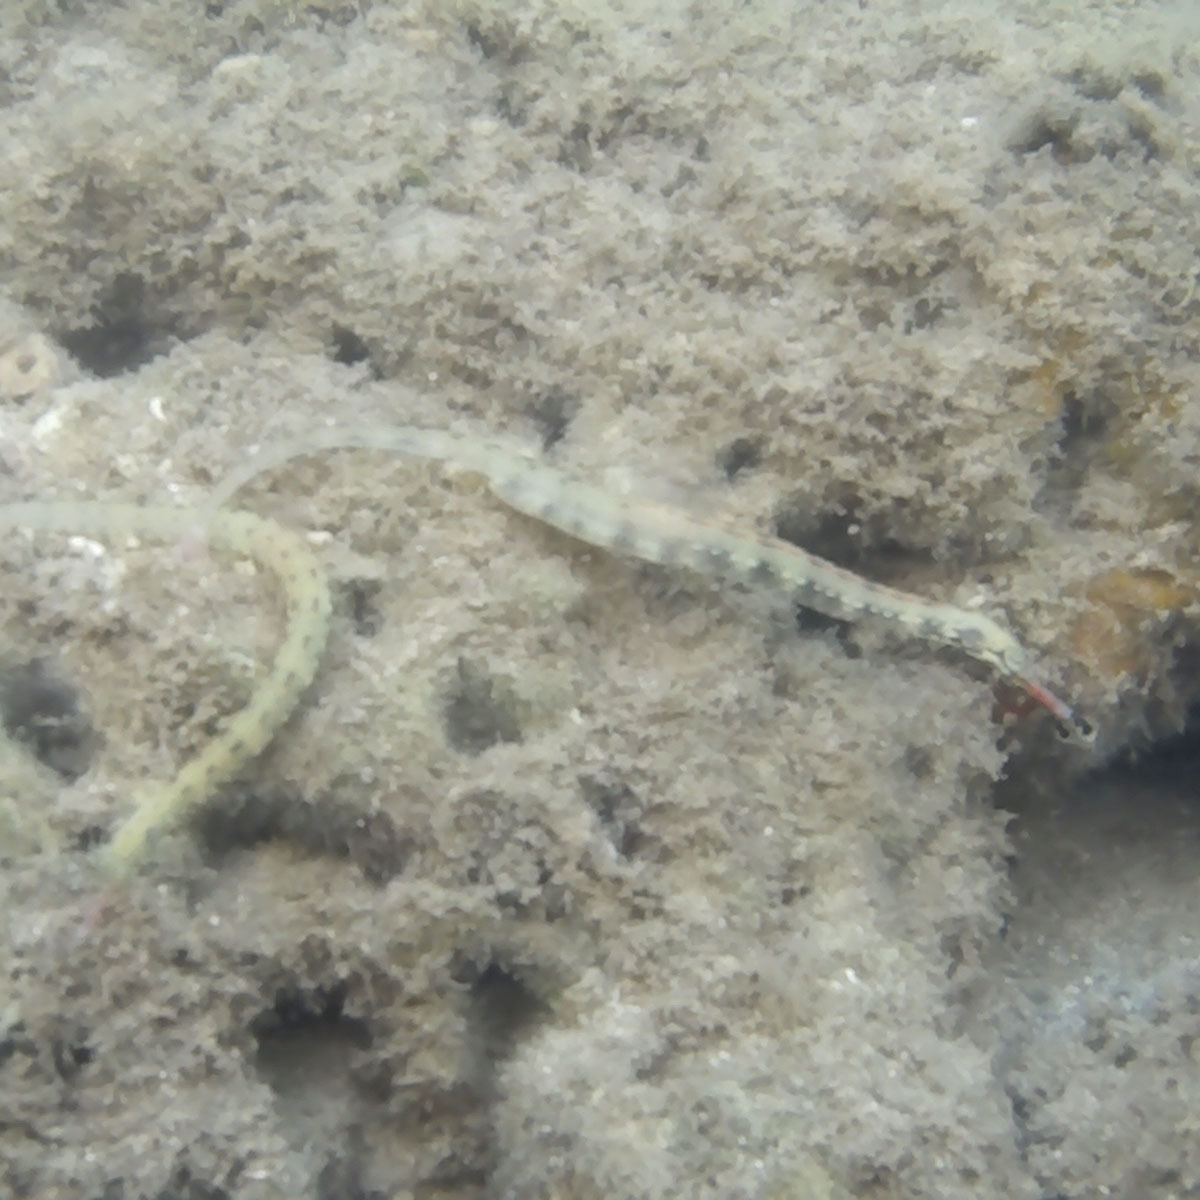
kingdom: Animalia
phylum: Chordata
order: Syngnathiformes
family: Syngnathidae
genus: Corythoichthys
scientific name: Corythoichthys haematopterus
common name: Bloodspot pipefish
